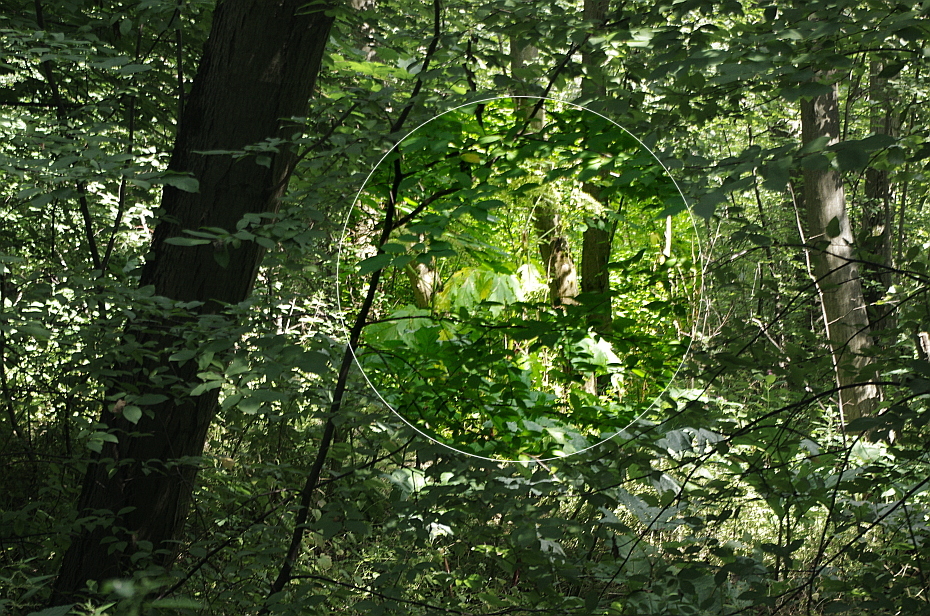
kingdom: Plantae
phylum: Tracheophyta
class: Magnoliopsida
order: Apiales
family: Apiaceae
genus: Heracleum
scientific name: Heracleum sosnowskyi
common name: Sosnowsky's hogweed
